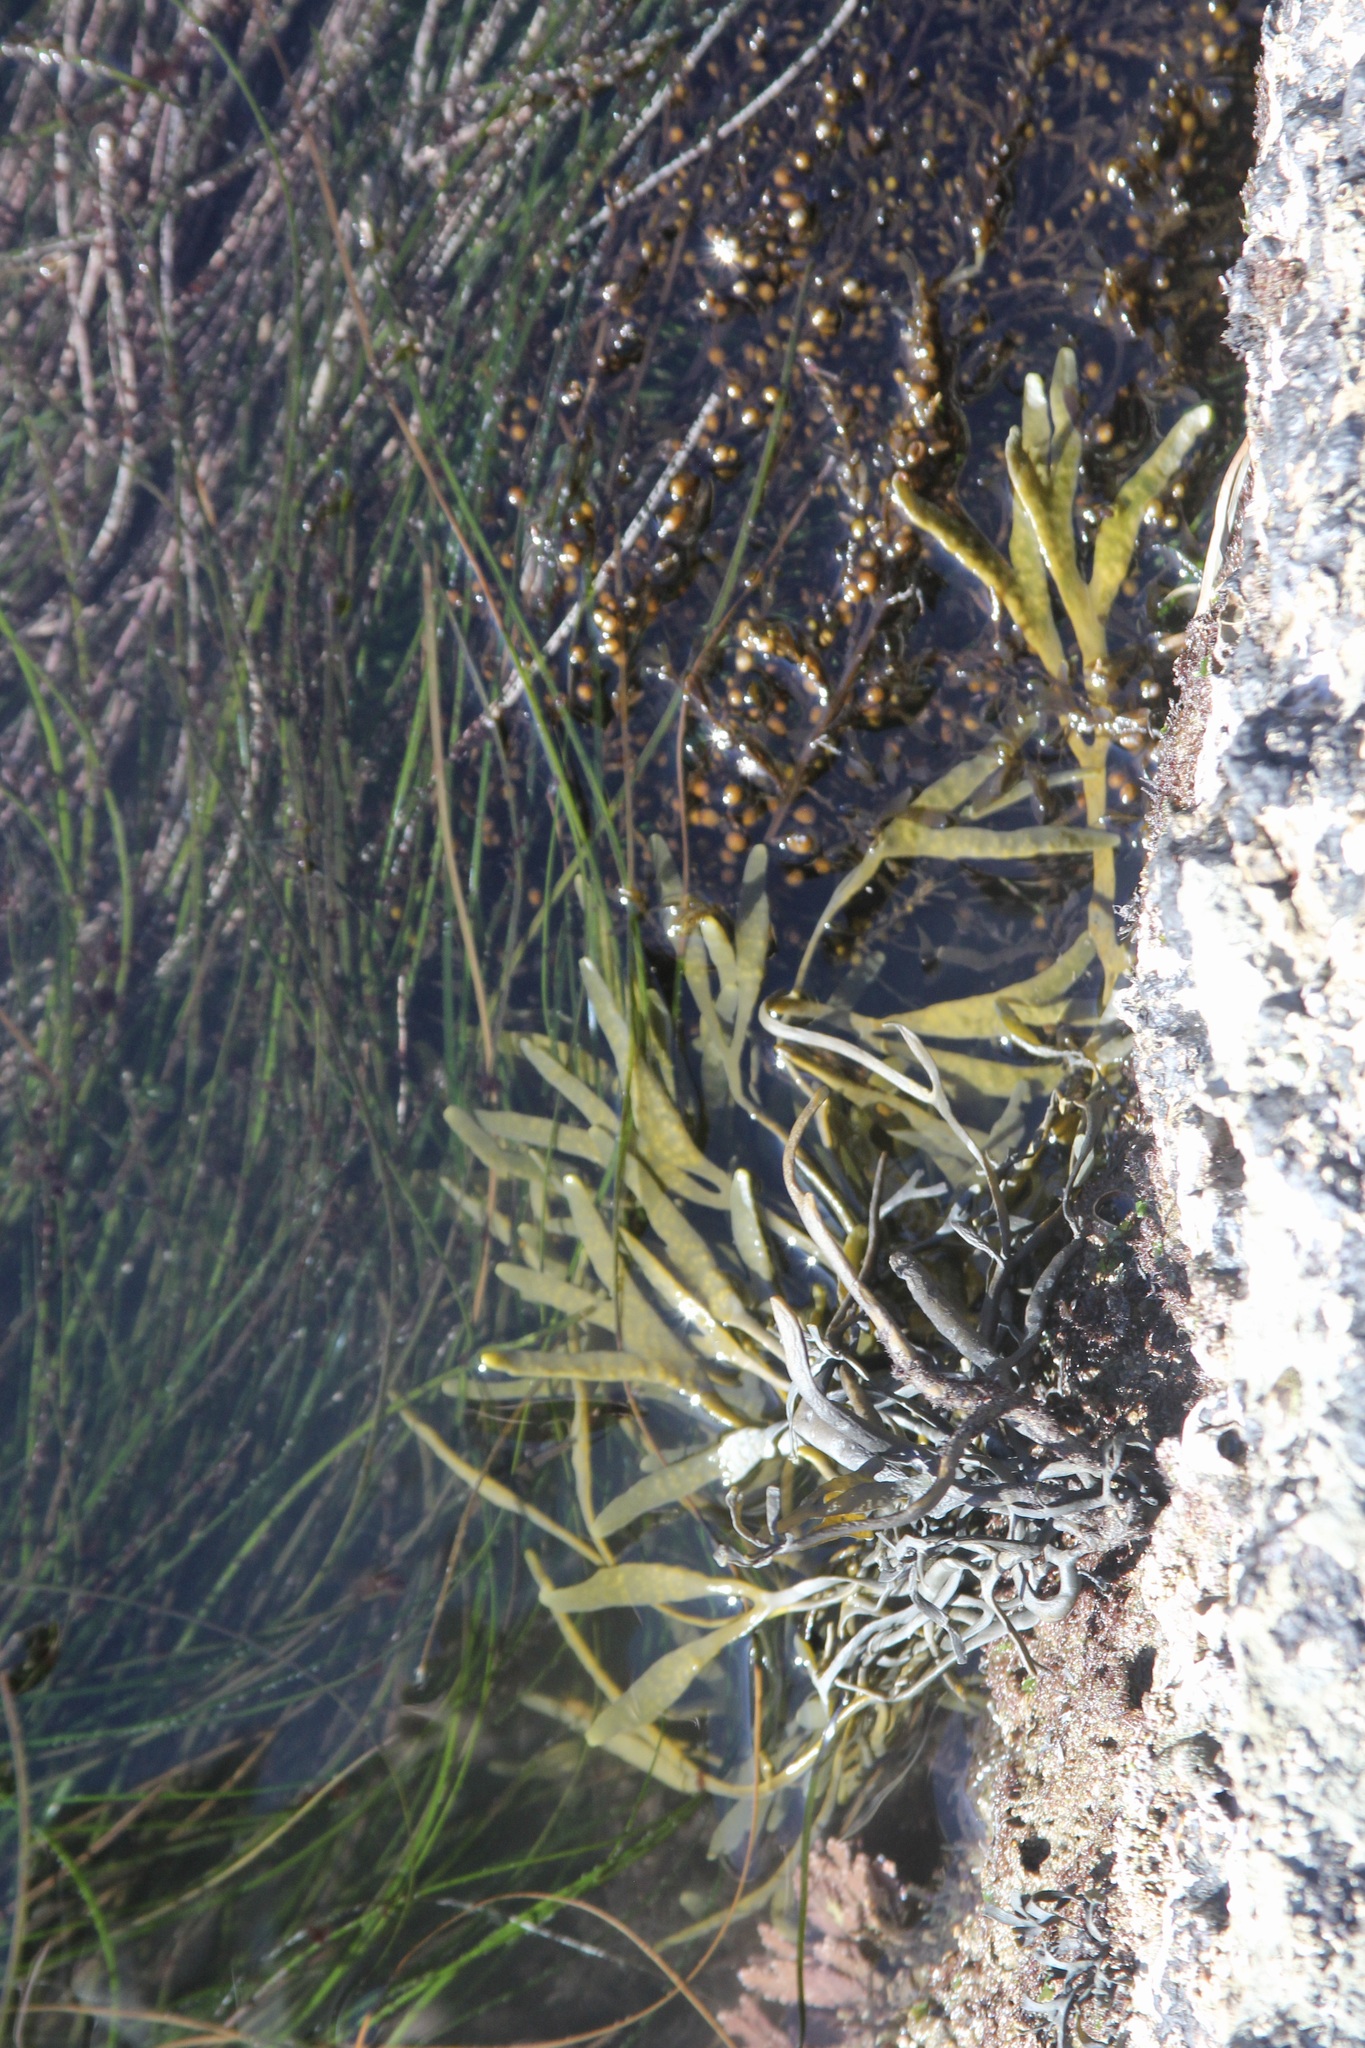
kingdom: Chromista
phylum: Ochrophyta
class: Phaeophyceae
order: Fucales
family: Fucaceae
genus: Silvetia
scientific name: Silvetia
